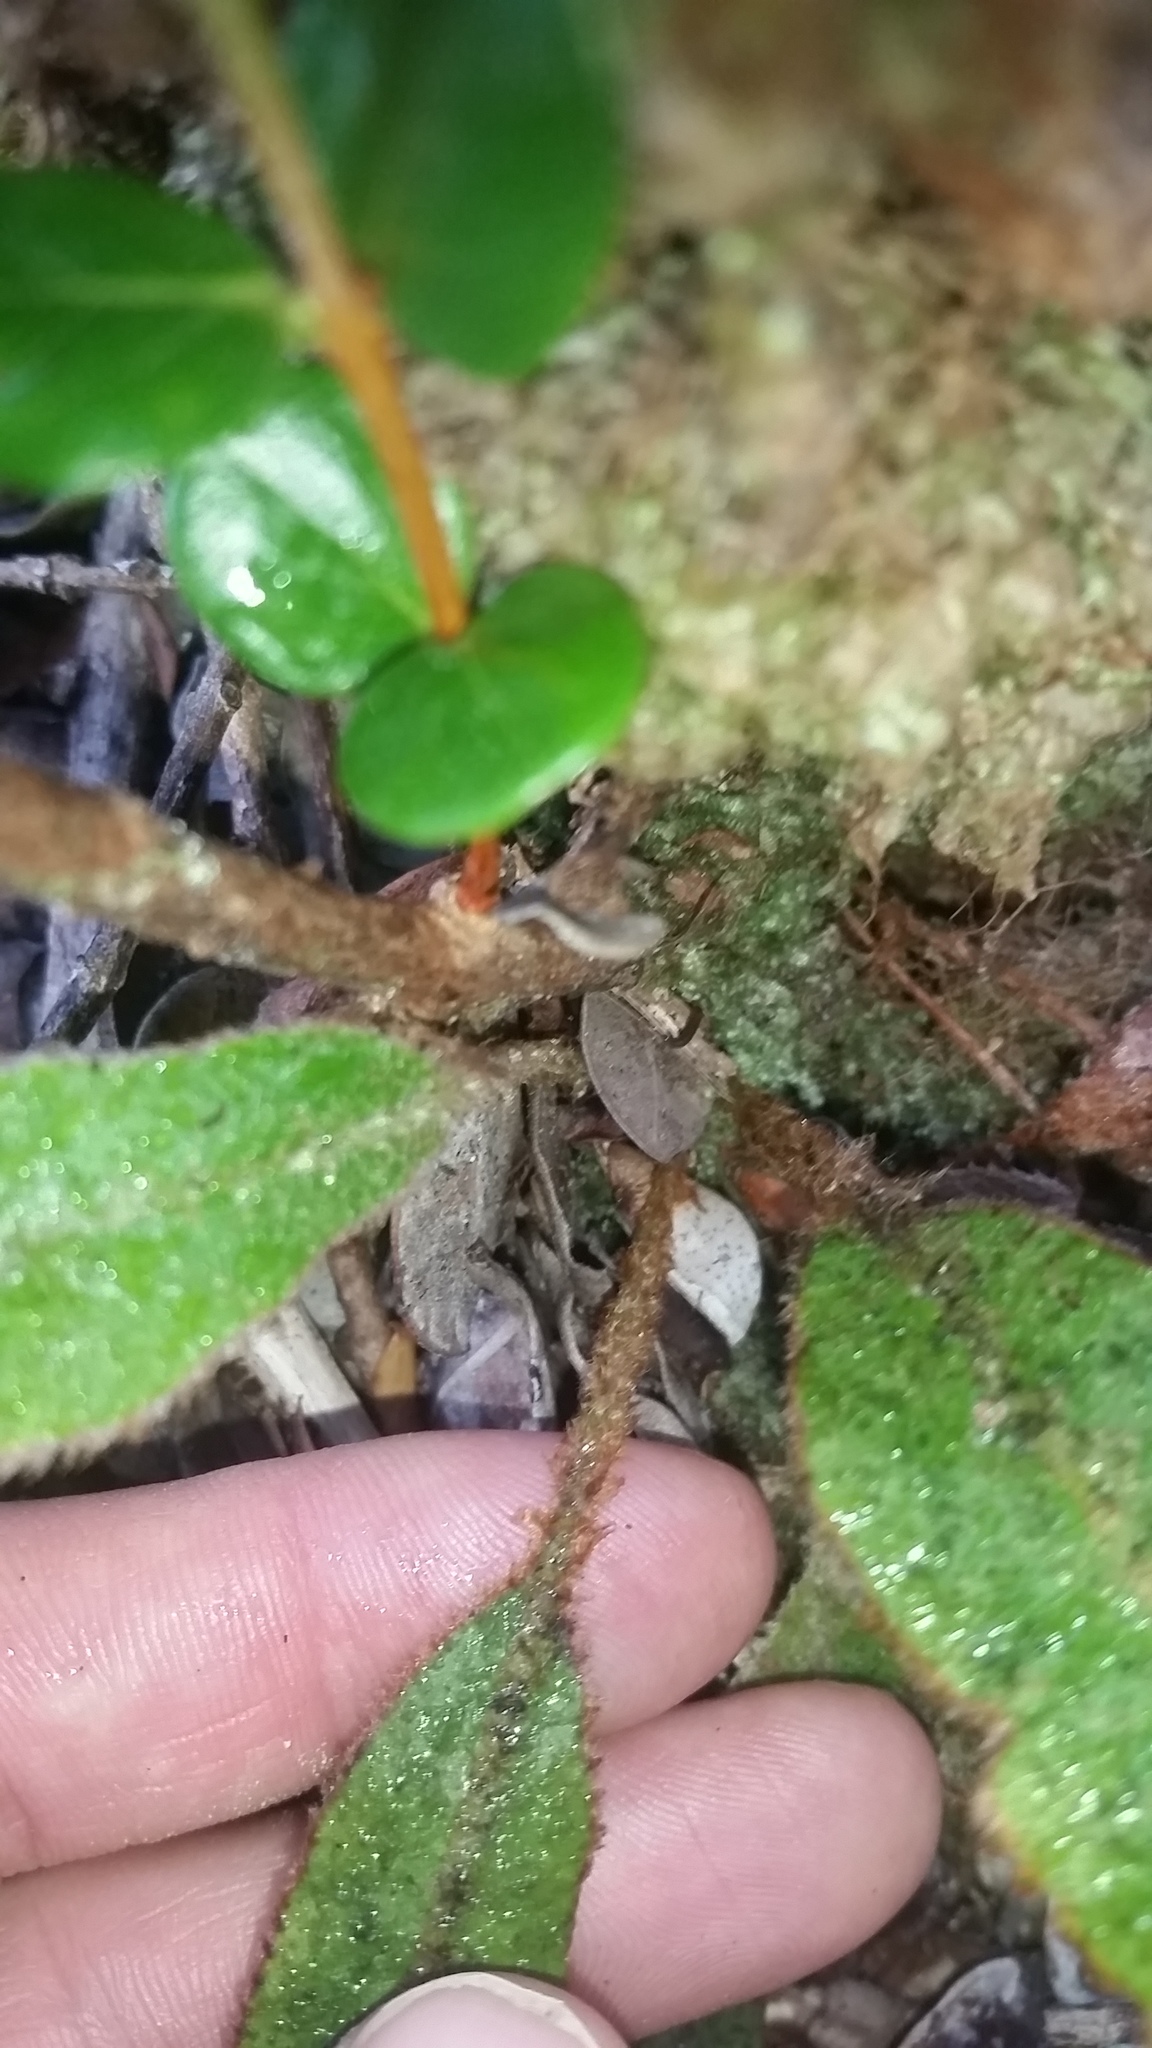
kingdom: Plantae
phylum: Tracheophyta
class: Polypodiopsida
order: Polypodiales
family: Dryopteridaceae
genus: Elaphoglossum
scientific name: Elaphoglossum paleaceum
